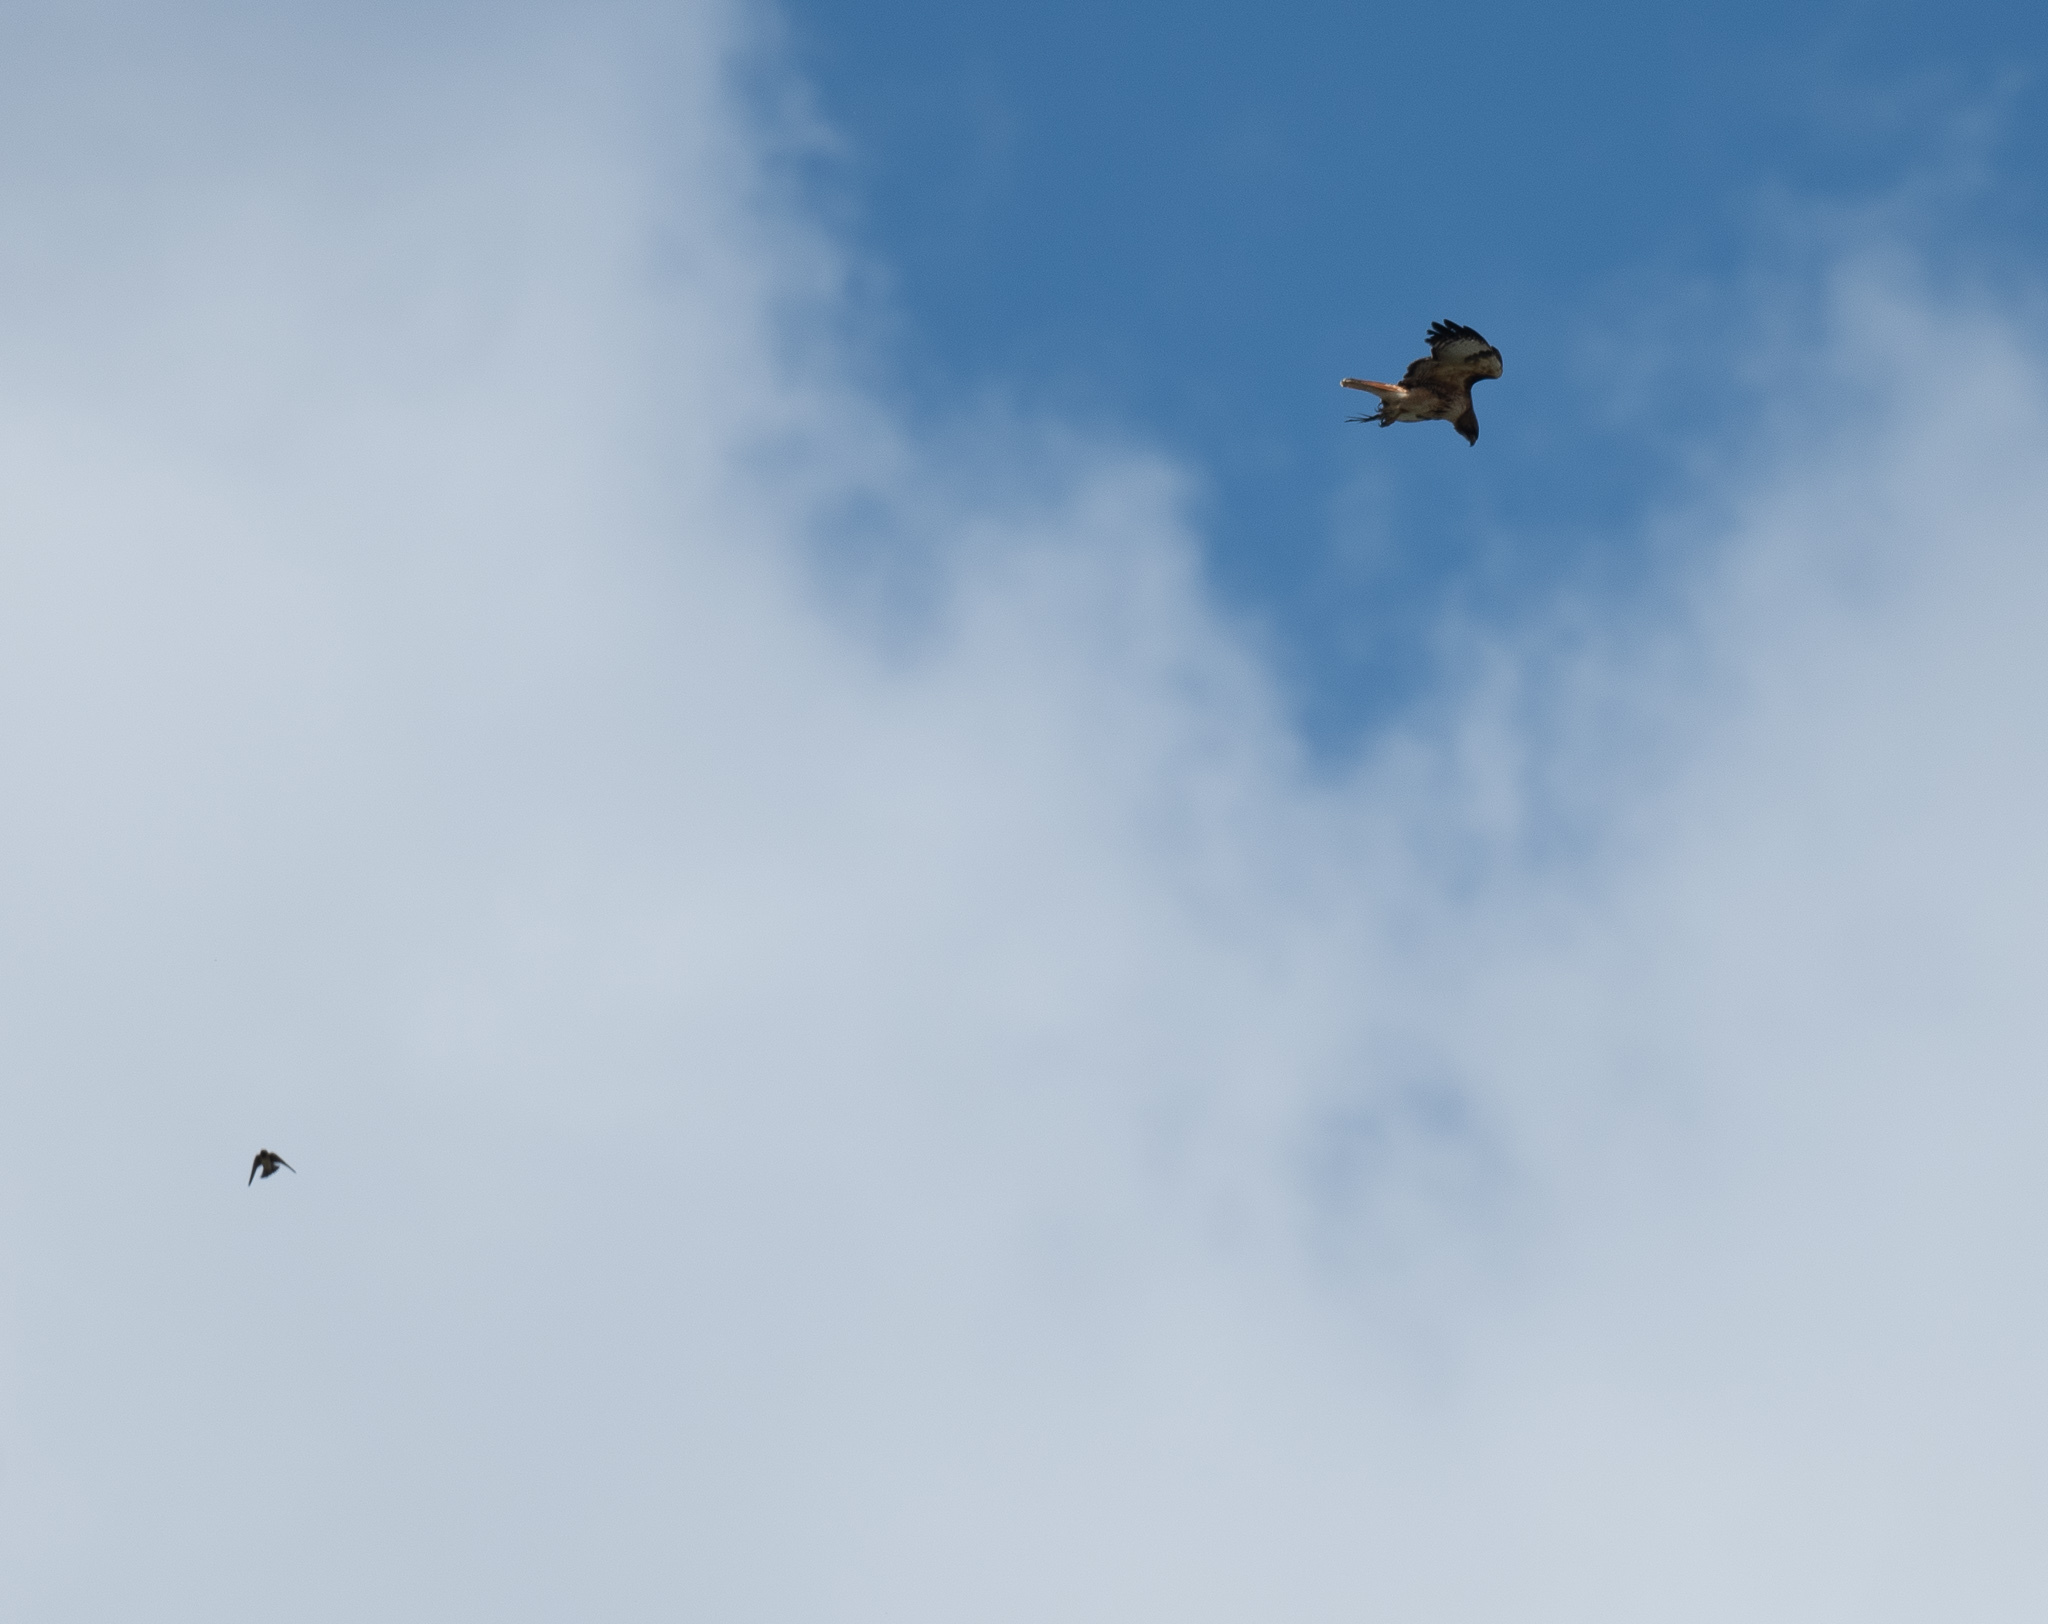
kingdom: Animalia
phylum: Chordata
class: Aves
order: Accipitriformes
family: Accipitridae
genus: Buteo
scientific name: Buteo jamaicensis
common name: Red-tailed hawk
